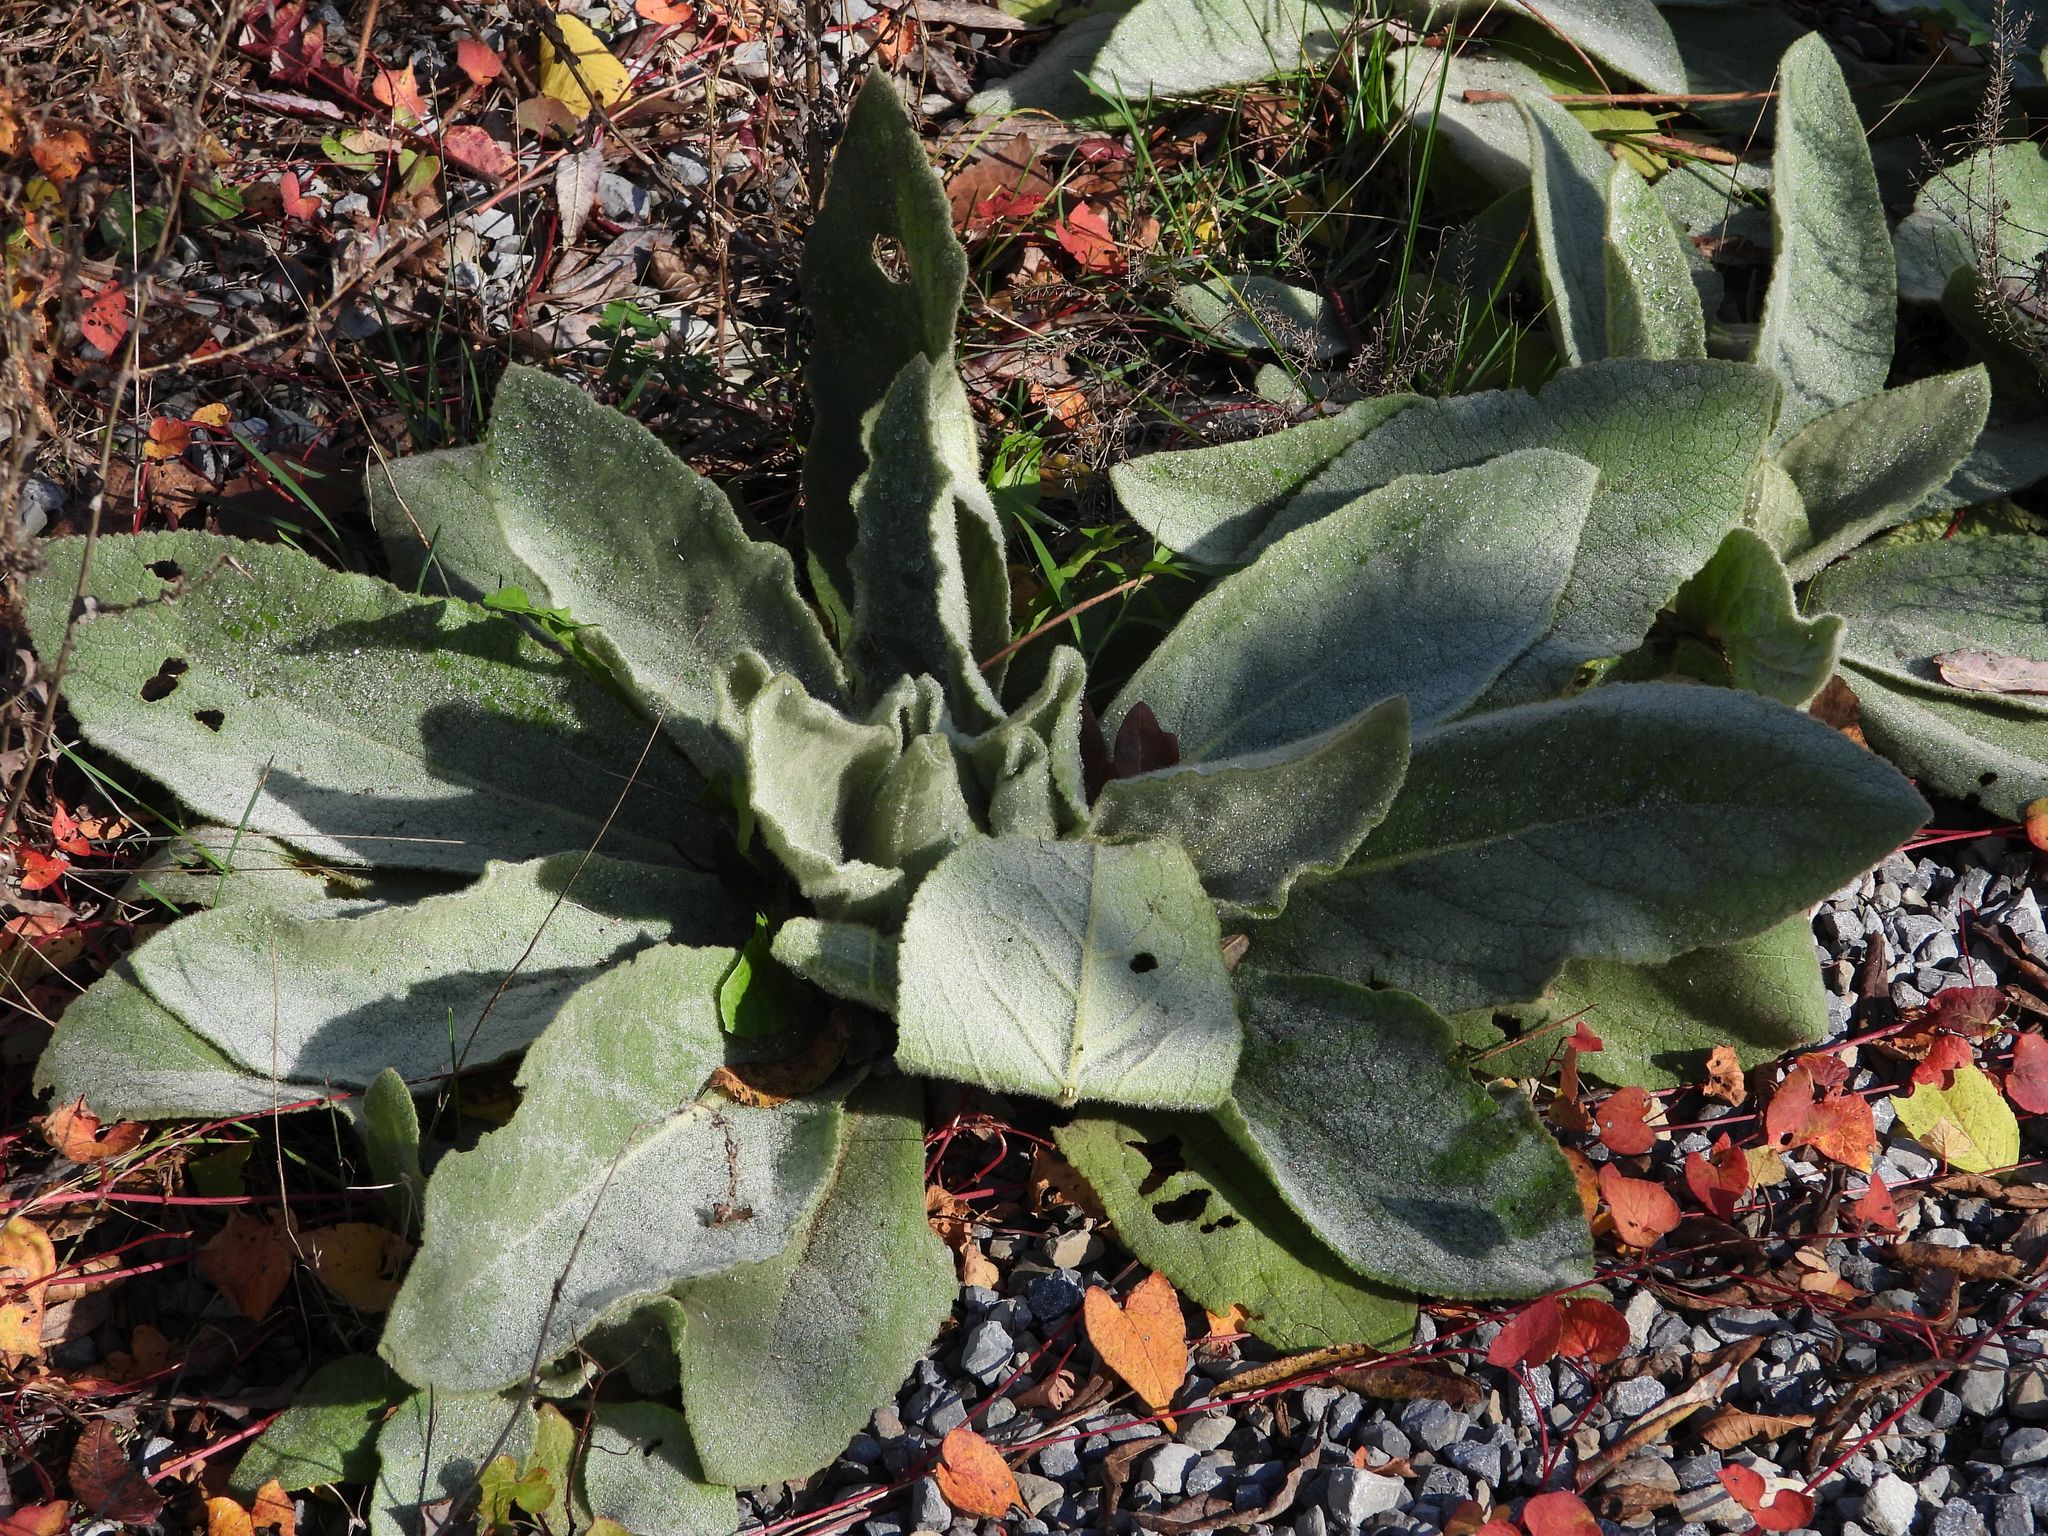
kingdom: Plantae
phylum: Tracheophyta
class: Magnoliopsida
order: Lamiales
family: Scrophulariaceae
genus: Verbascum
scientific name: Verbascum thapsus
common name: Common mullein
